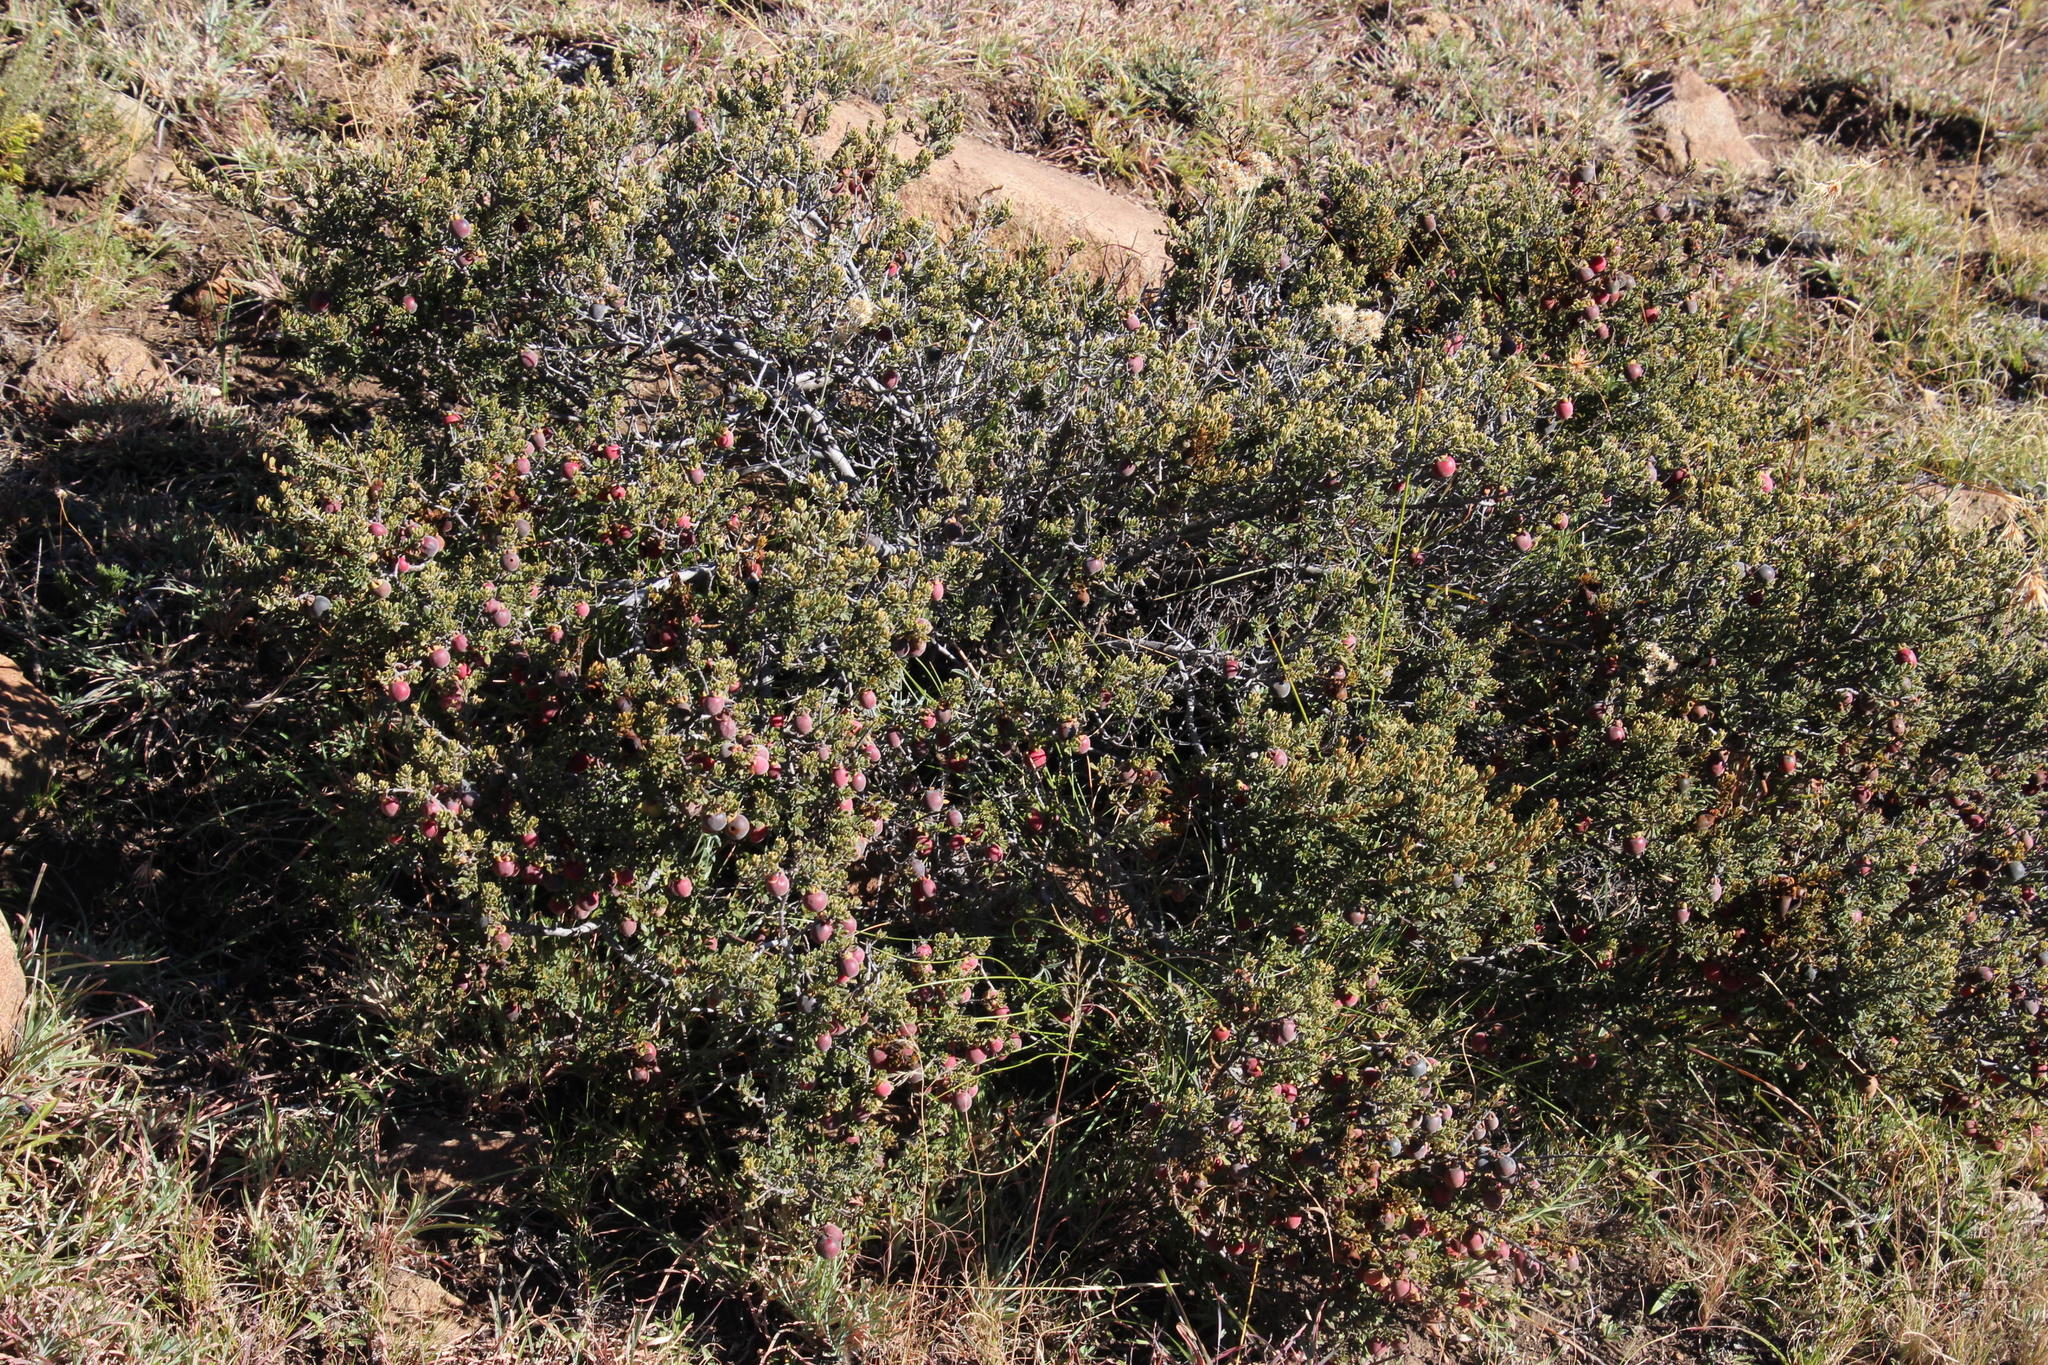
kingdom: Plantae
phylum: Tracheophyta
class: Magnoliopsida
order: Ericales
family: Ebenaceae
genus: Diospyros
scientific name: Diospyros pubescens
